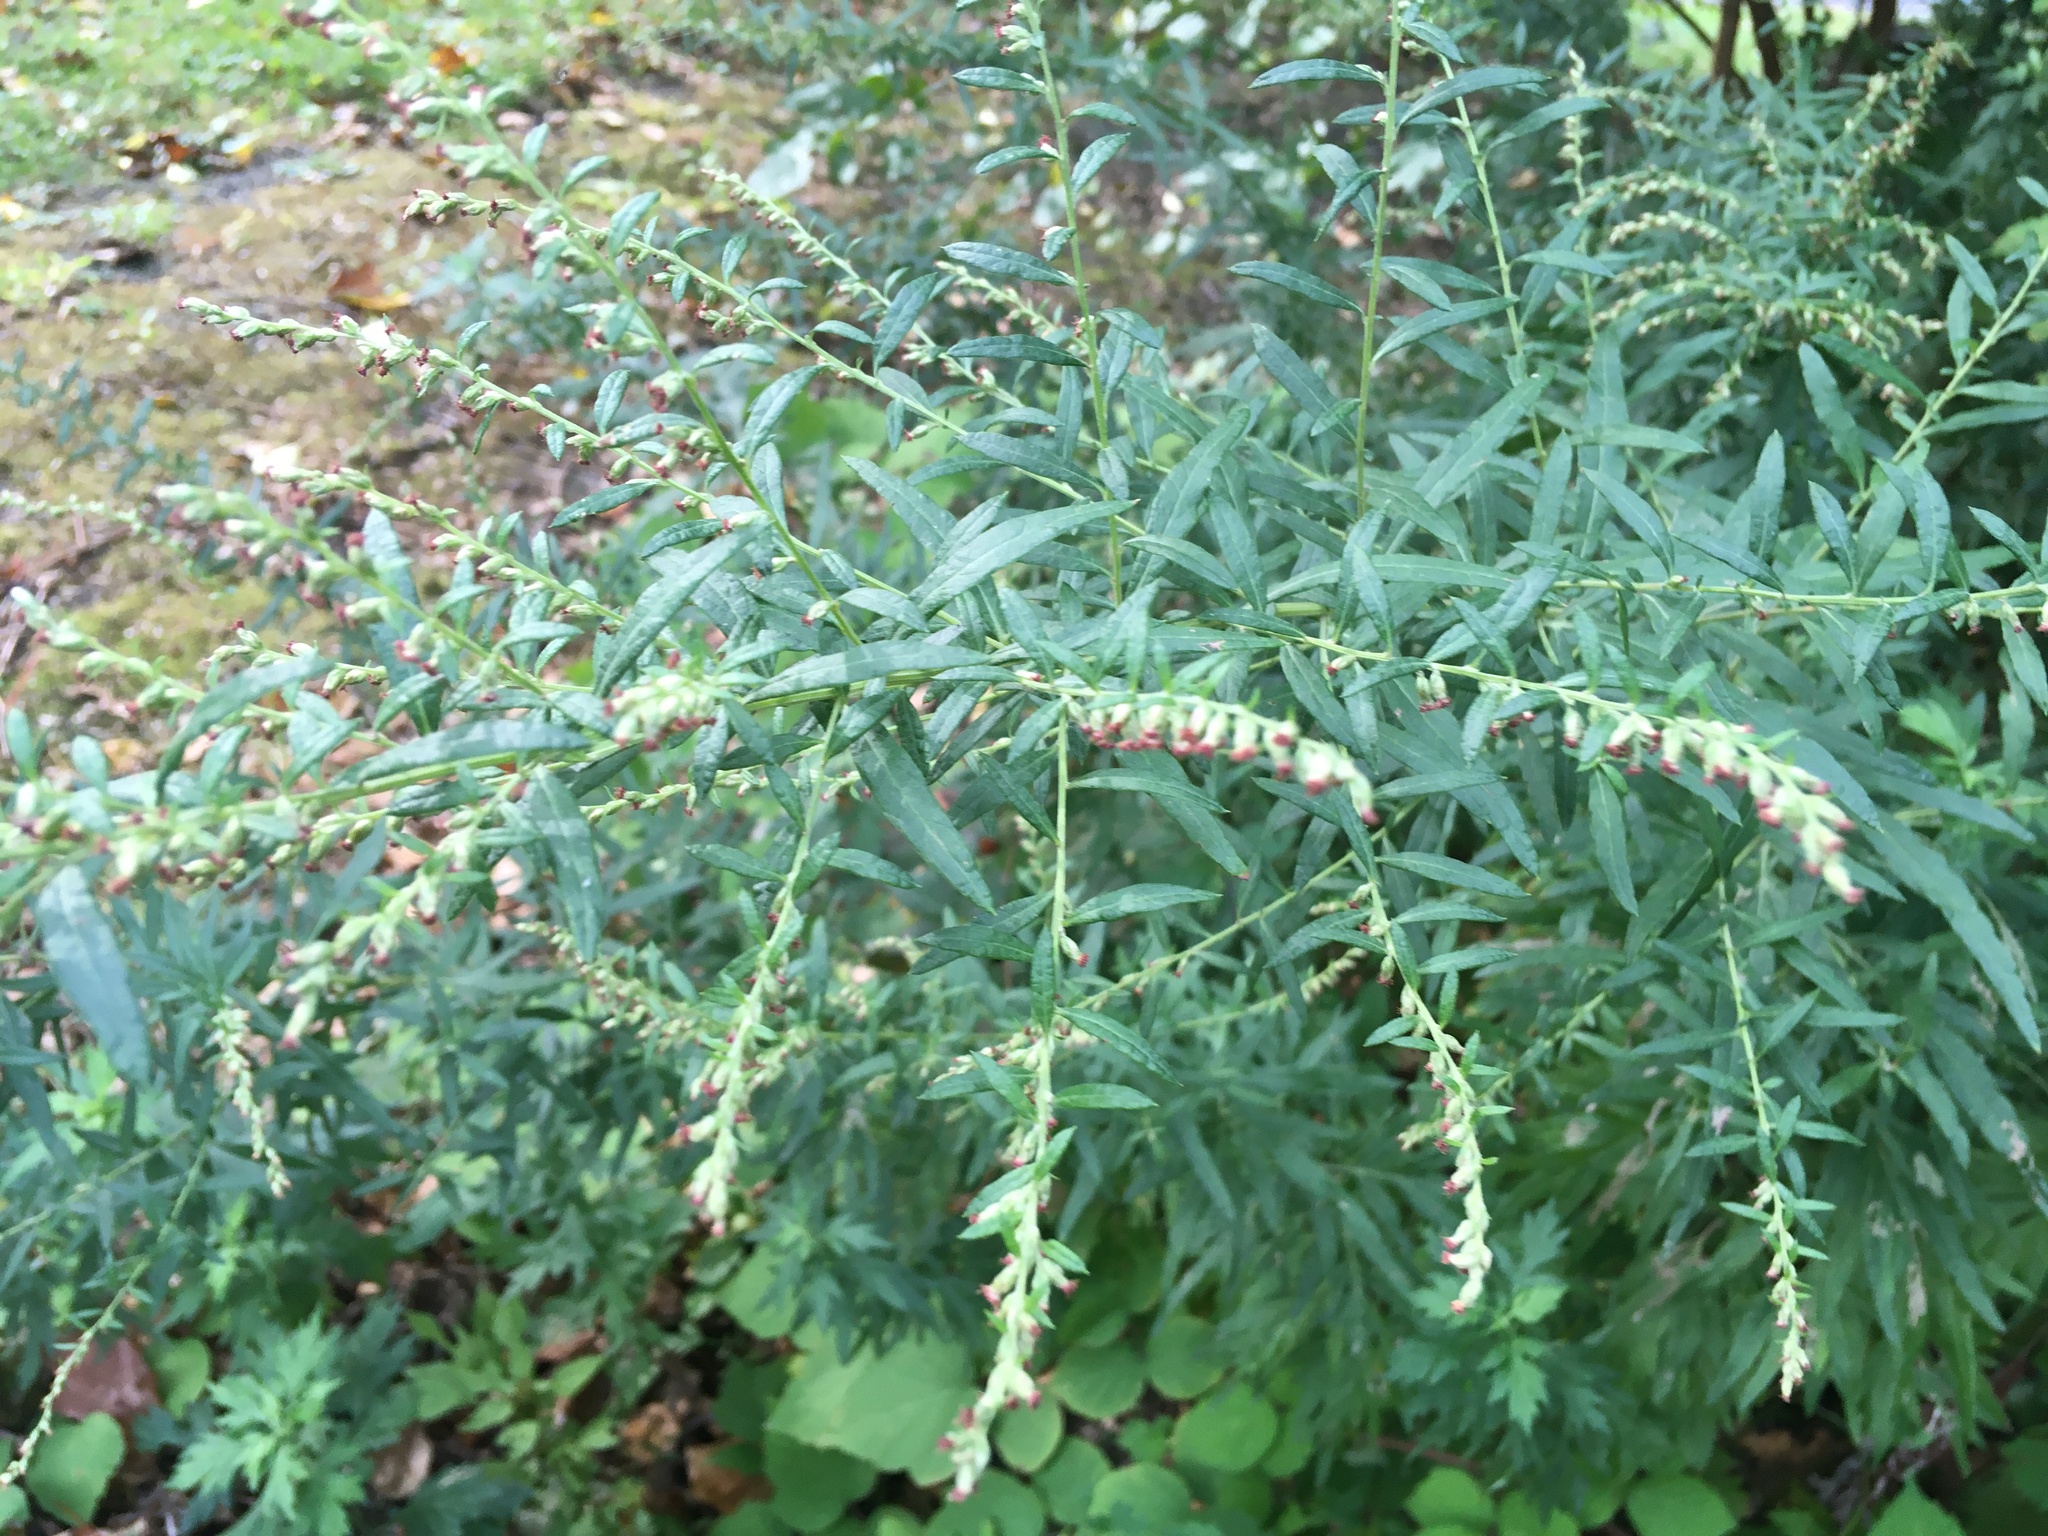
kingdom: Plantae
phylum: Tracheophyta
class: Magnoliopsida
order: Asterales
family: Asteraceae
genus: Artemisia
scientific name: Artemisia vulgaris
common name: Mugwort
